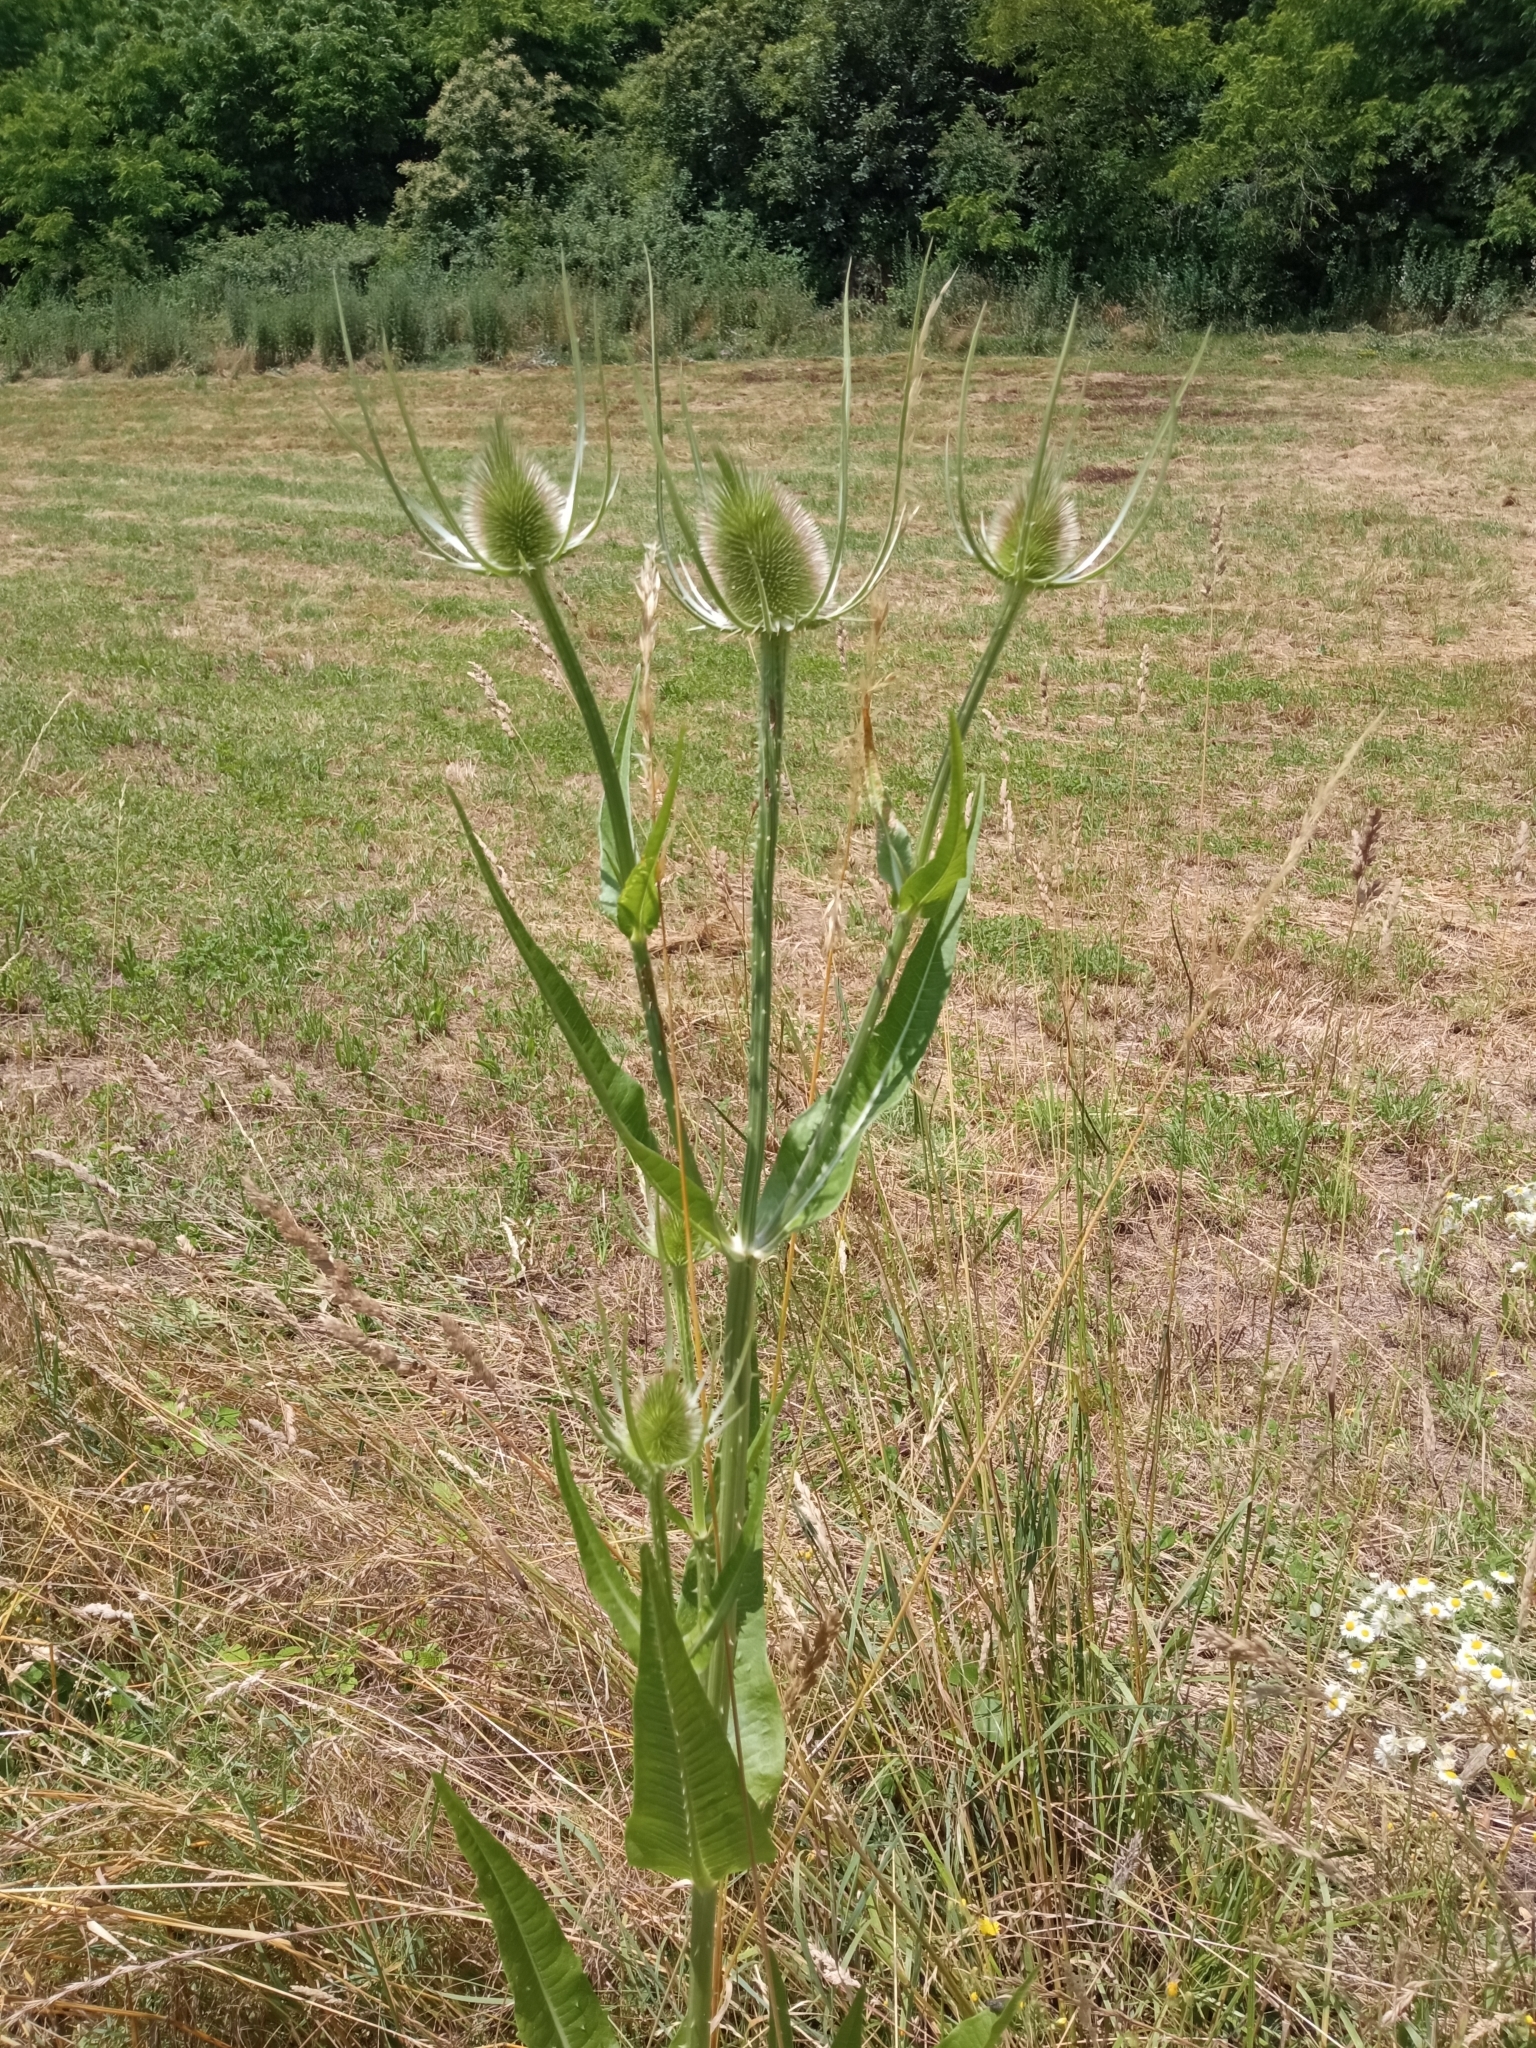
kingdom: Plantae
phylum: Tracheophyta
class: Magnoliopsida
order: Dipsacales
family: Caprifoliaceae
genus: Dipsacus
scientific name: Dipsacus fullonum
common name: Teasel
